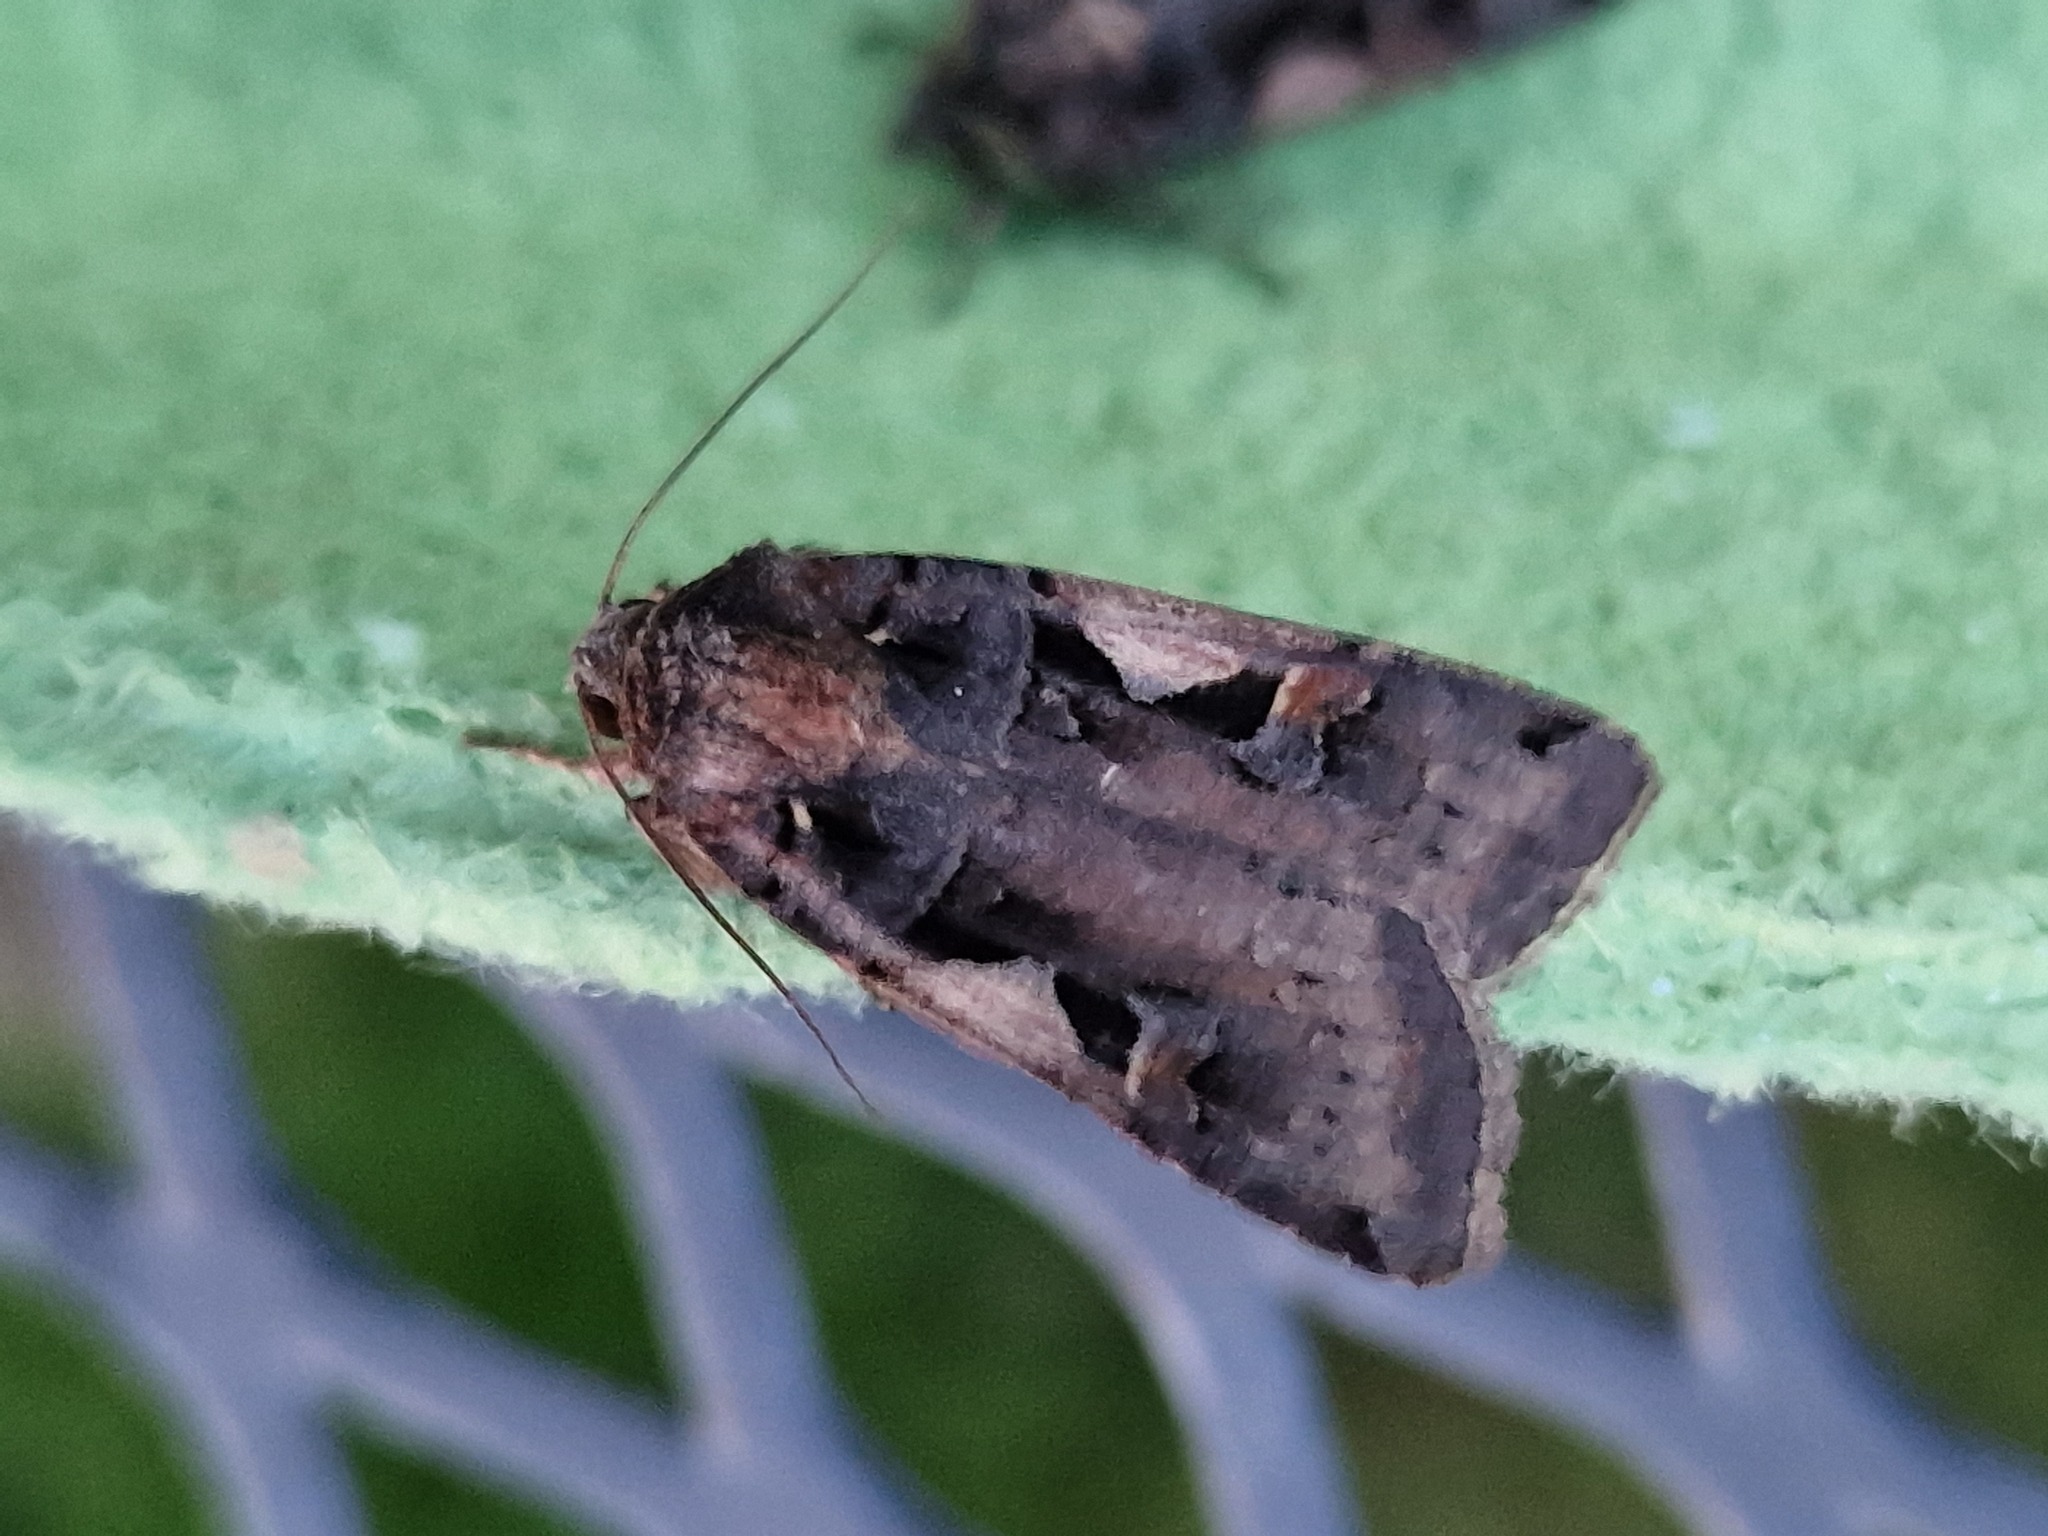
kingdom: Animalia
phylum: Arthropoda
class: Insecta
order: Lepidoptera
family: Noctuidae
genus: Xestia
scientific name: Xestia c-nigrum
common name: Setaceous hebrew character
